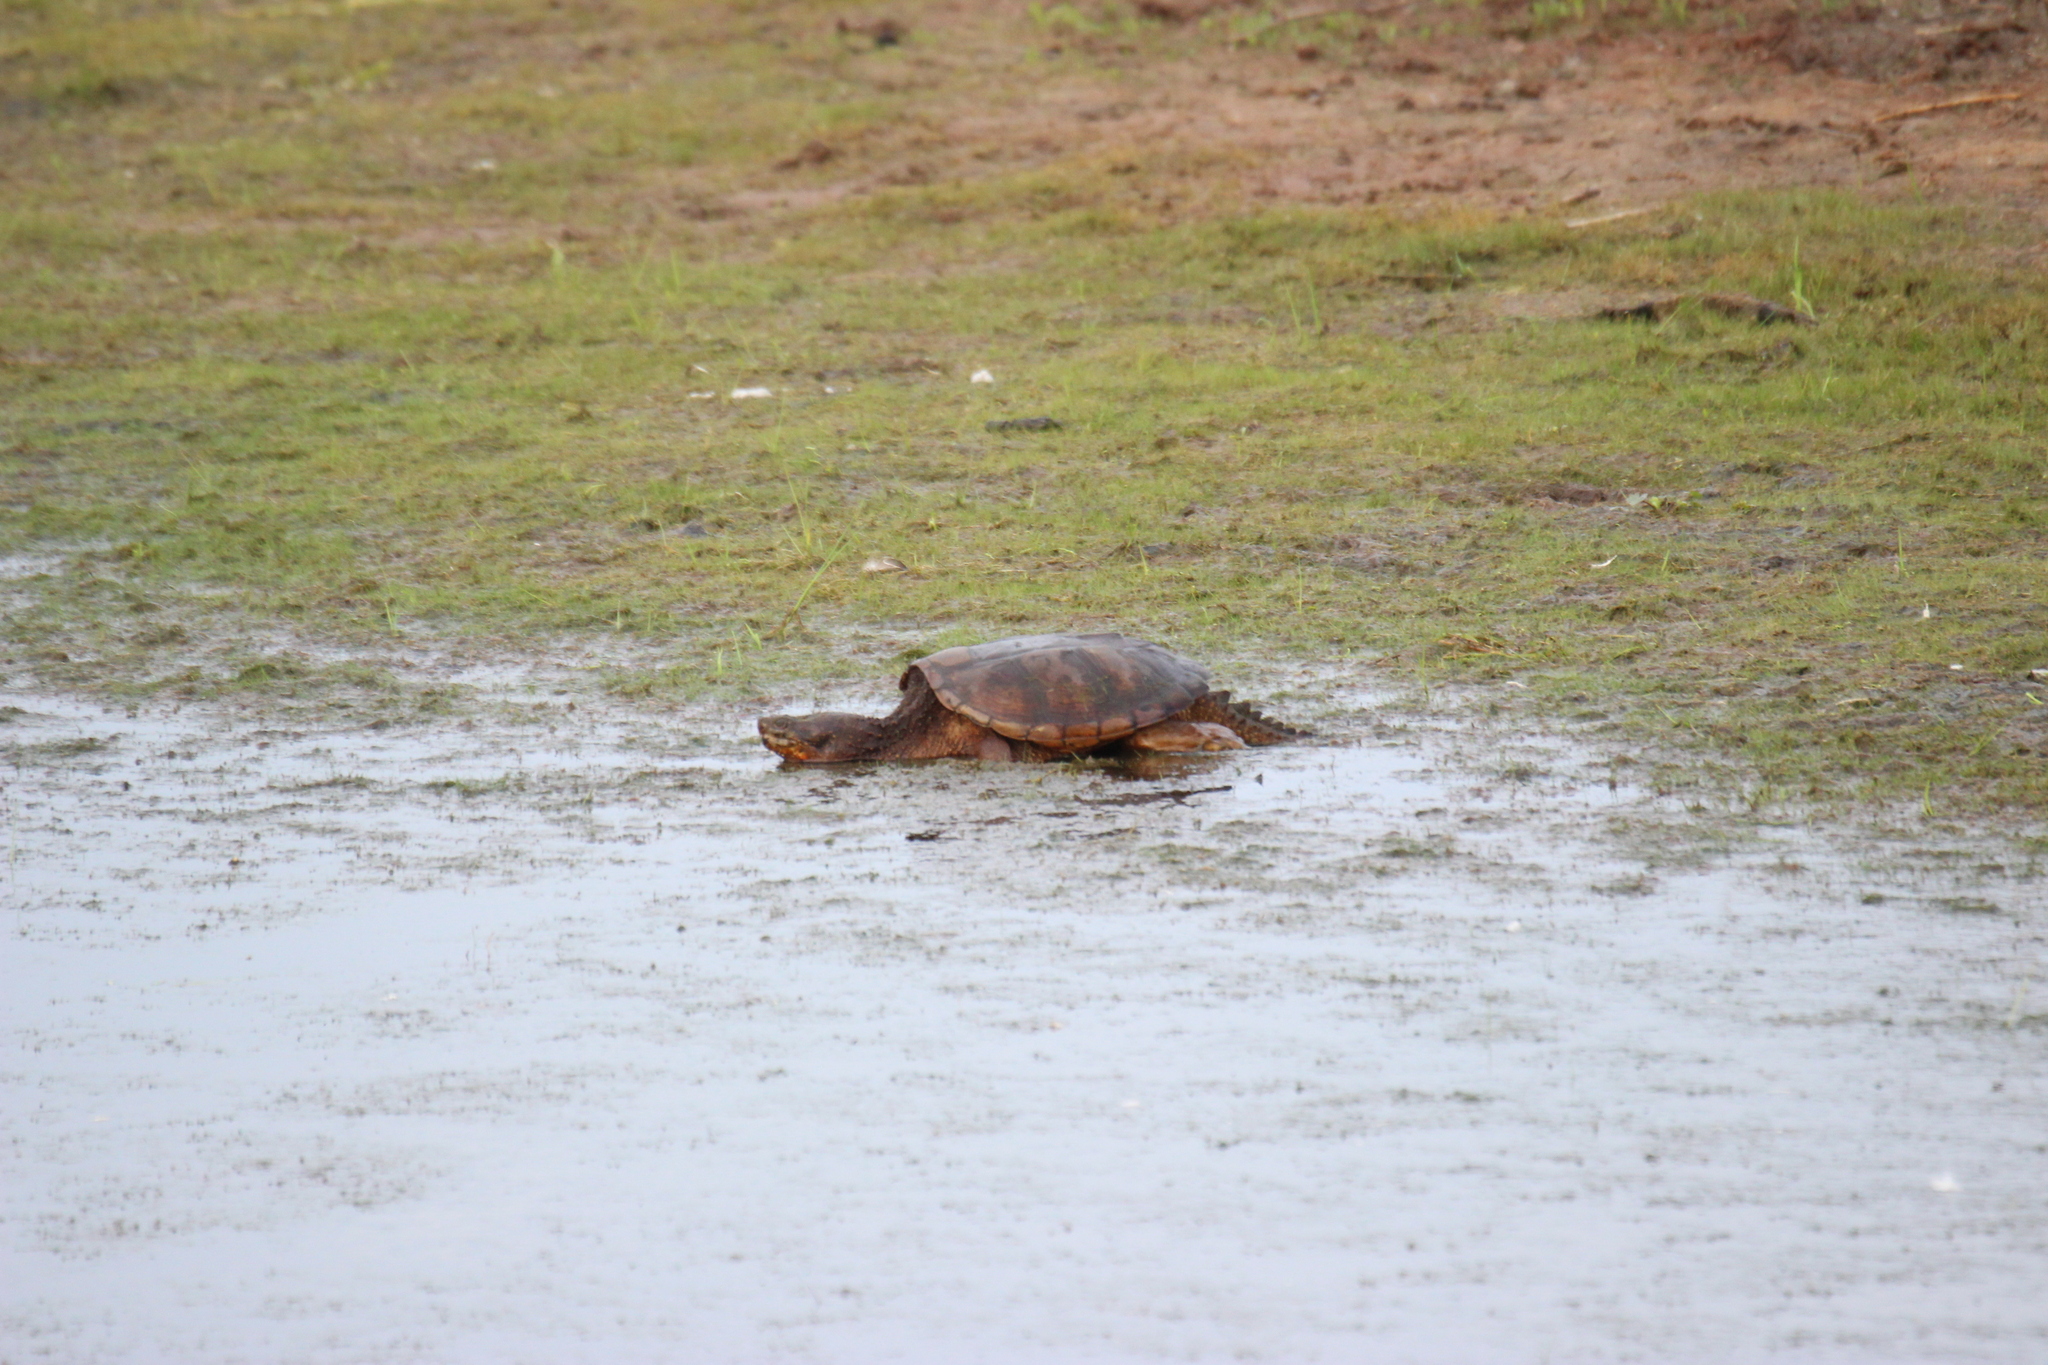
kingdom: Animalia
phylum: Chordata
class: Testudines
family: Chelydridae
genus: Chelydra
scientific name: Chelydra serpentina
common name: Common snapping turtle
